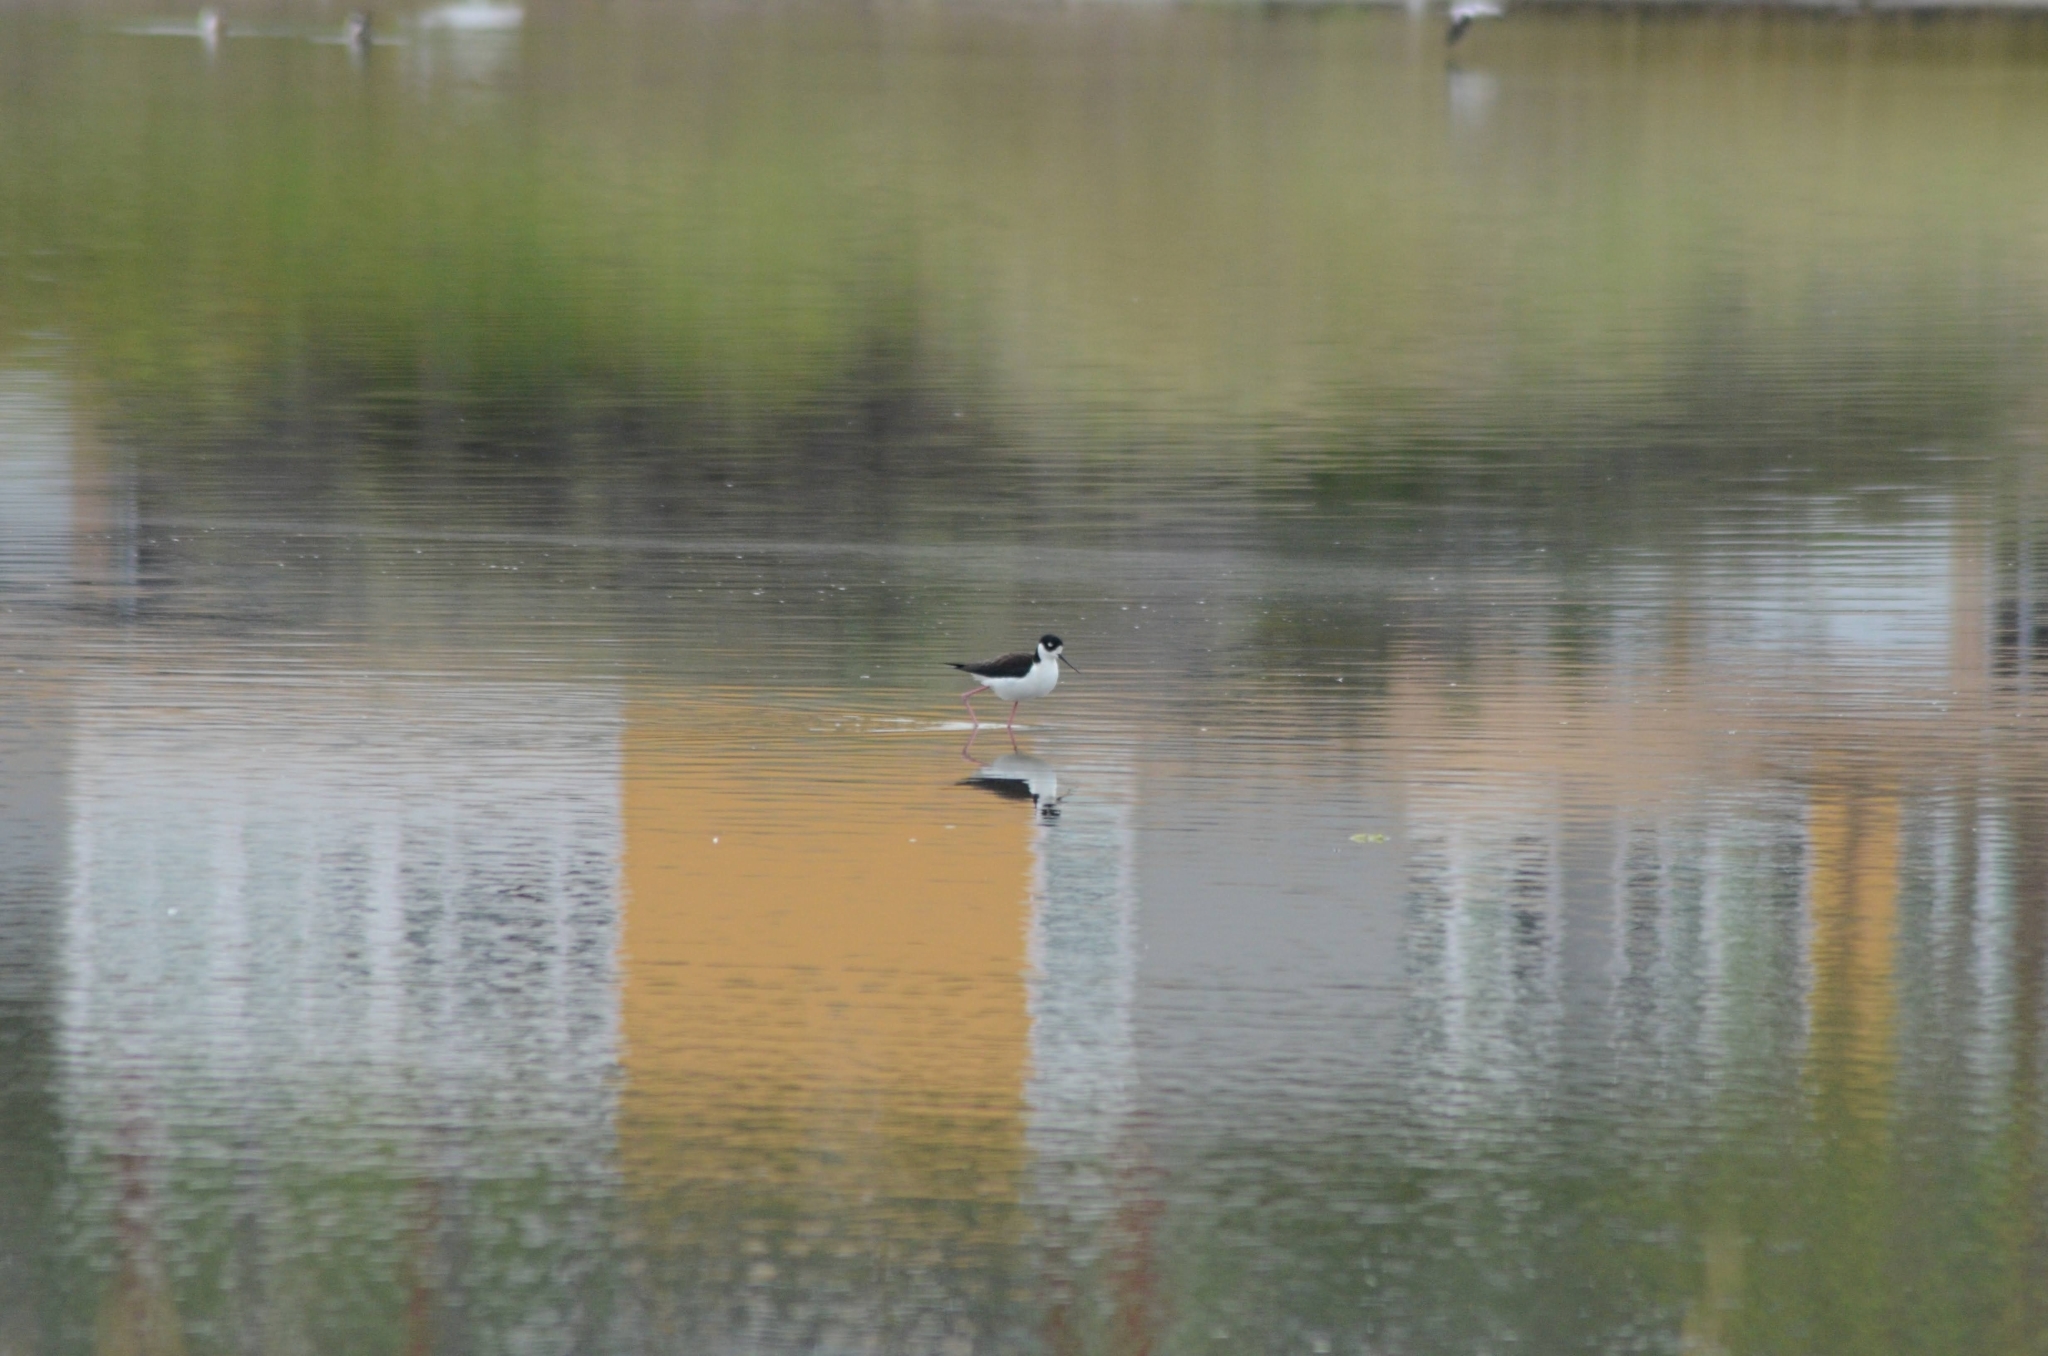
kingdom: Animalia
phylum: Chordata
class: Aves
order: Charadriiformes
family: Recurvirostridae
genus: Himantopus
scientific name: Himantopus mexicanus
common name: Black-necked stilt
